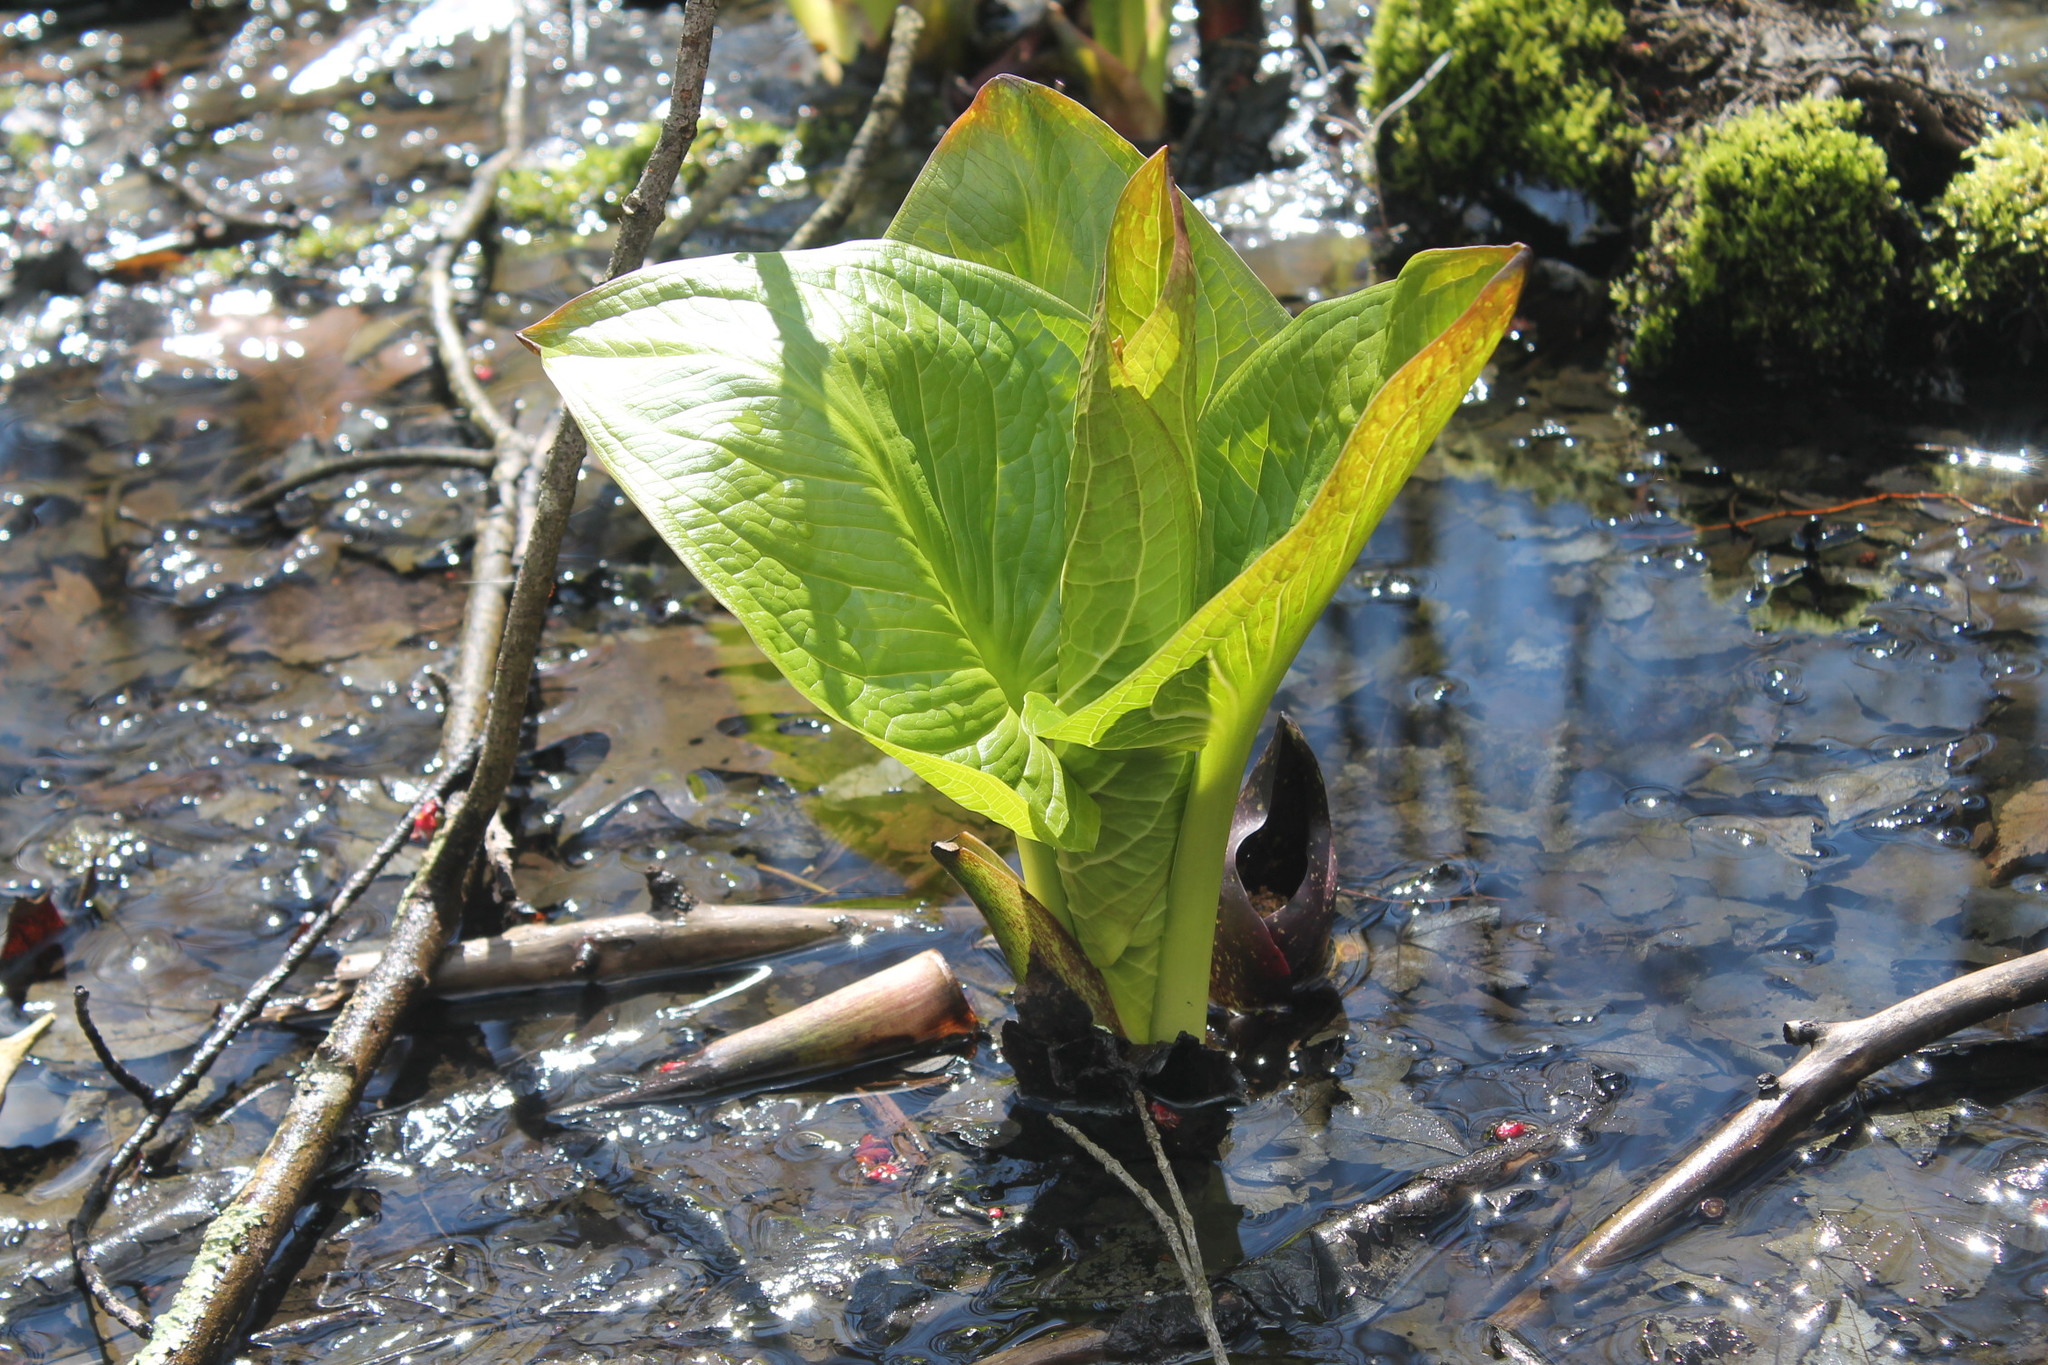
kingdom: Plantae
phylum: Tracheophyta
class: Liliopsida
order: Alismatales
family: Araceae
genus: Symplocarpus
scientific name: Symplocarpus foetidus
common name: Eastern skunk cabbage
